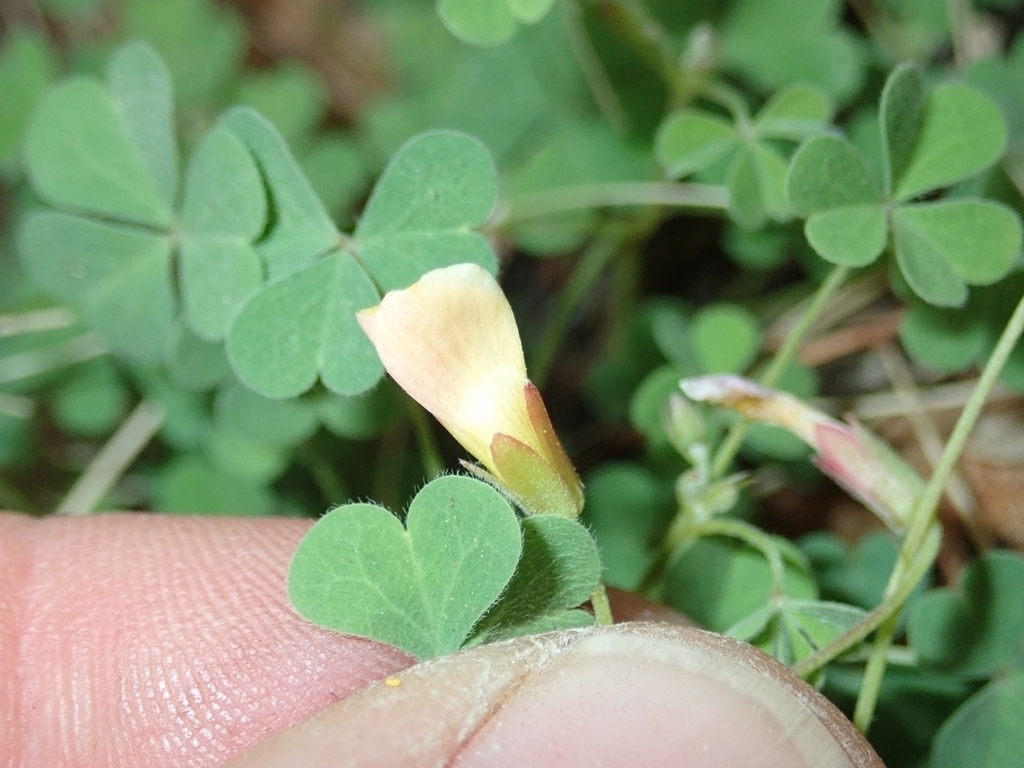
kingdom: Plantae
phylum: Tracheophyta
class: Magnoliopsida
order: Oxalidales
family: Oxalidaceae
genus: Oxalis
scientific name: Oxalis californica
